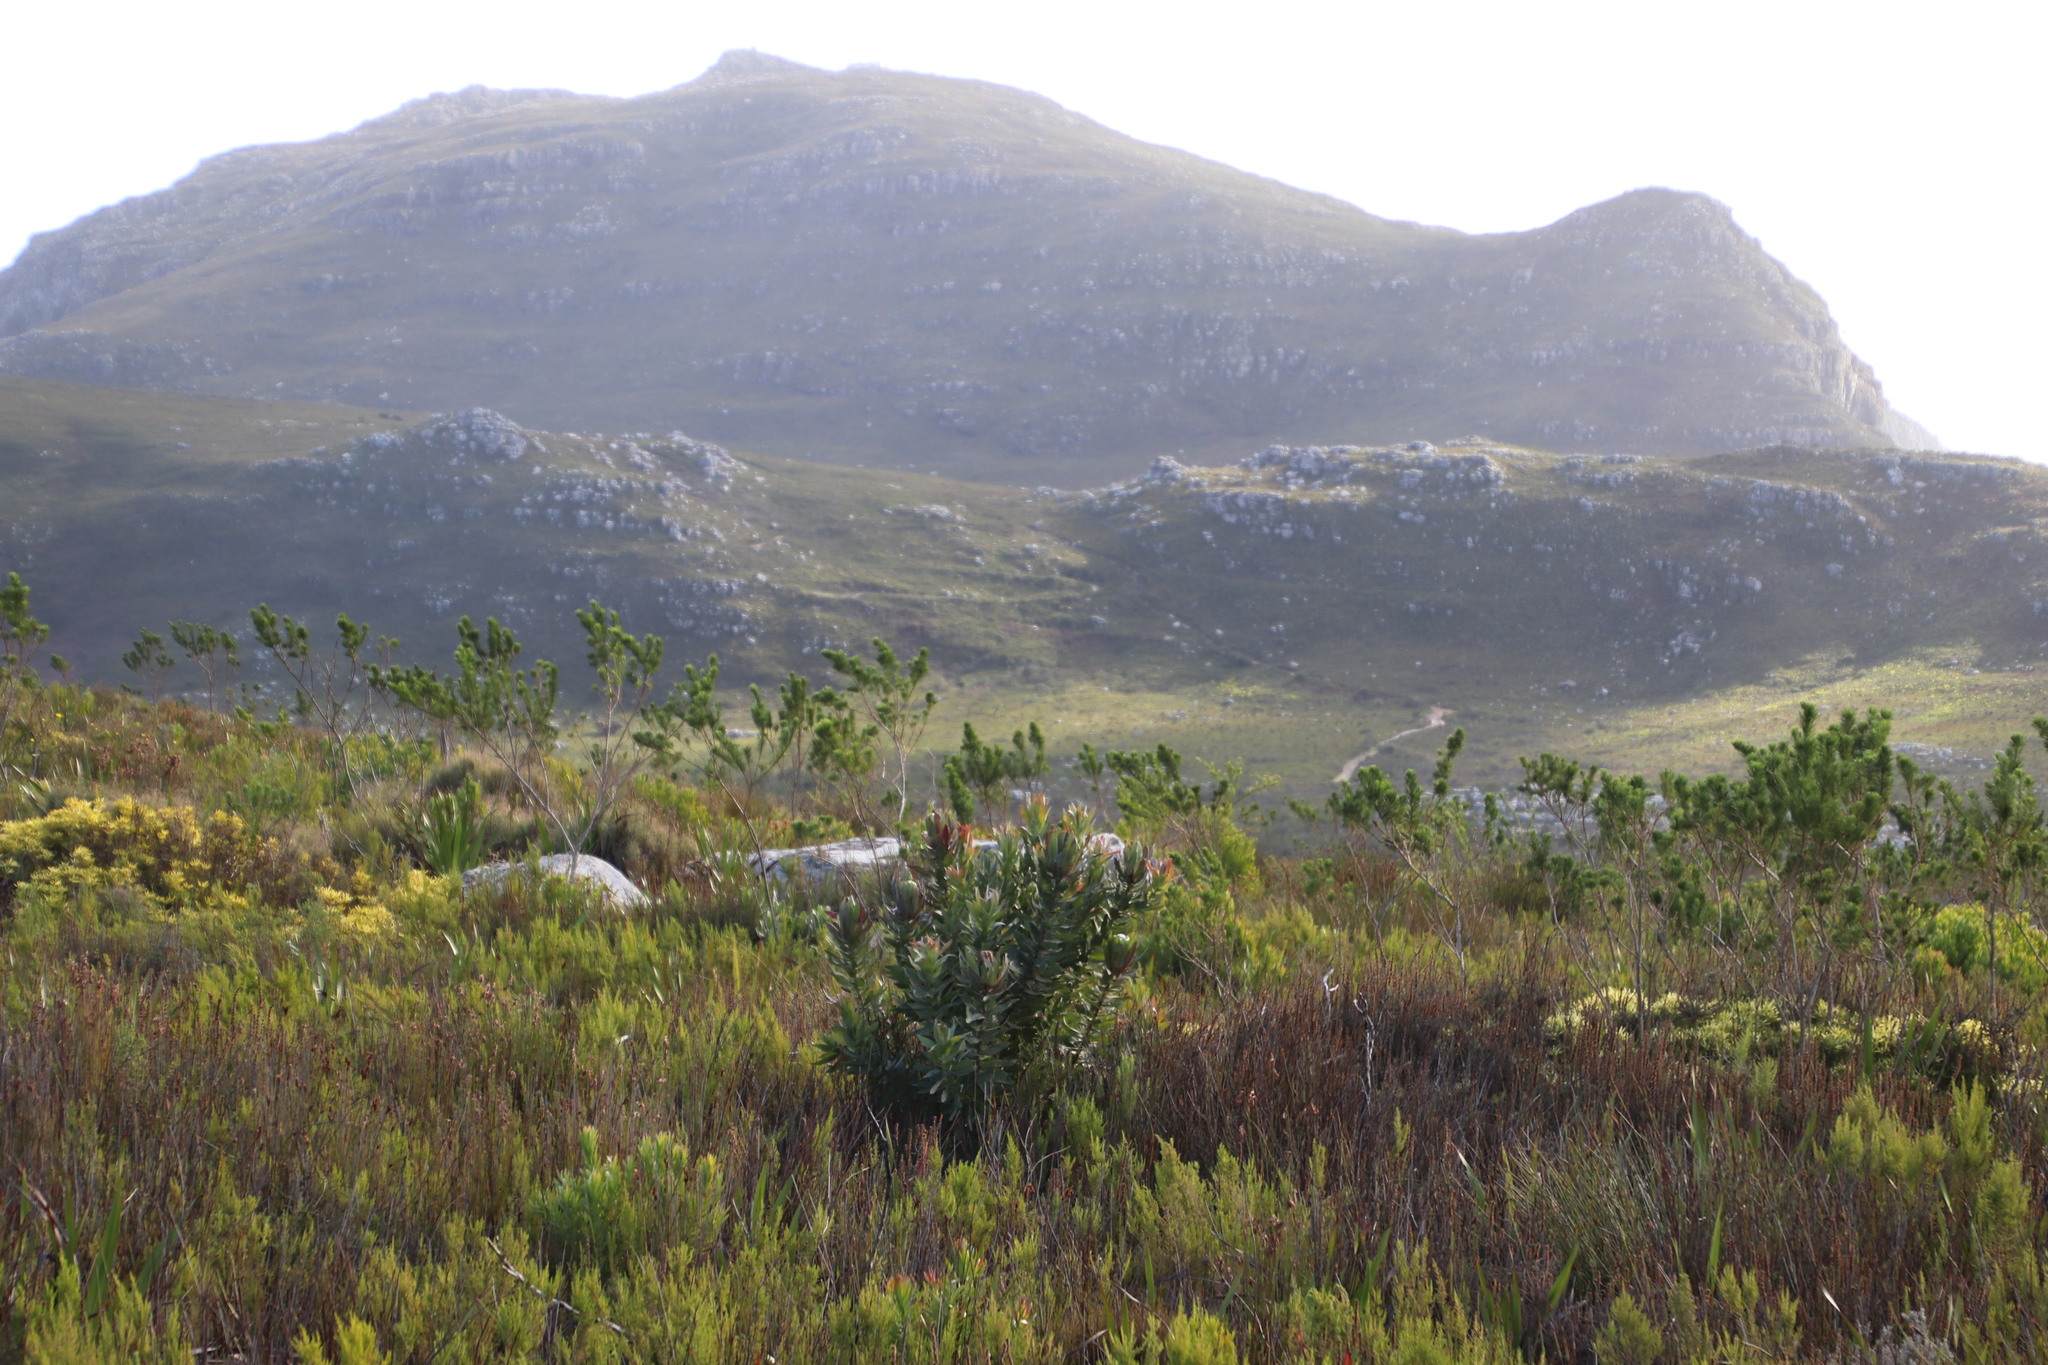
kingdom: Plantae
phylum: Tracheophyta
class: Magnoliopsida
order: Proteales
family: Proteaceae
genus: Protea
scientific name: Protea coronata
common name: Green sugarbush
